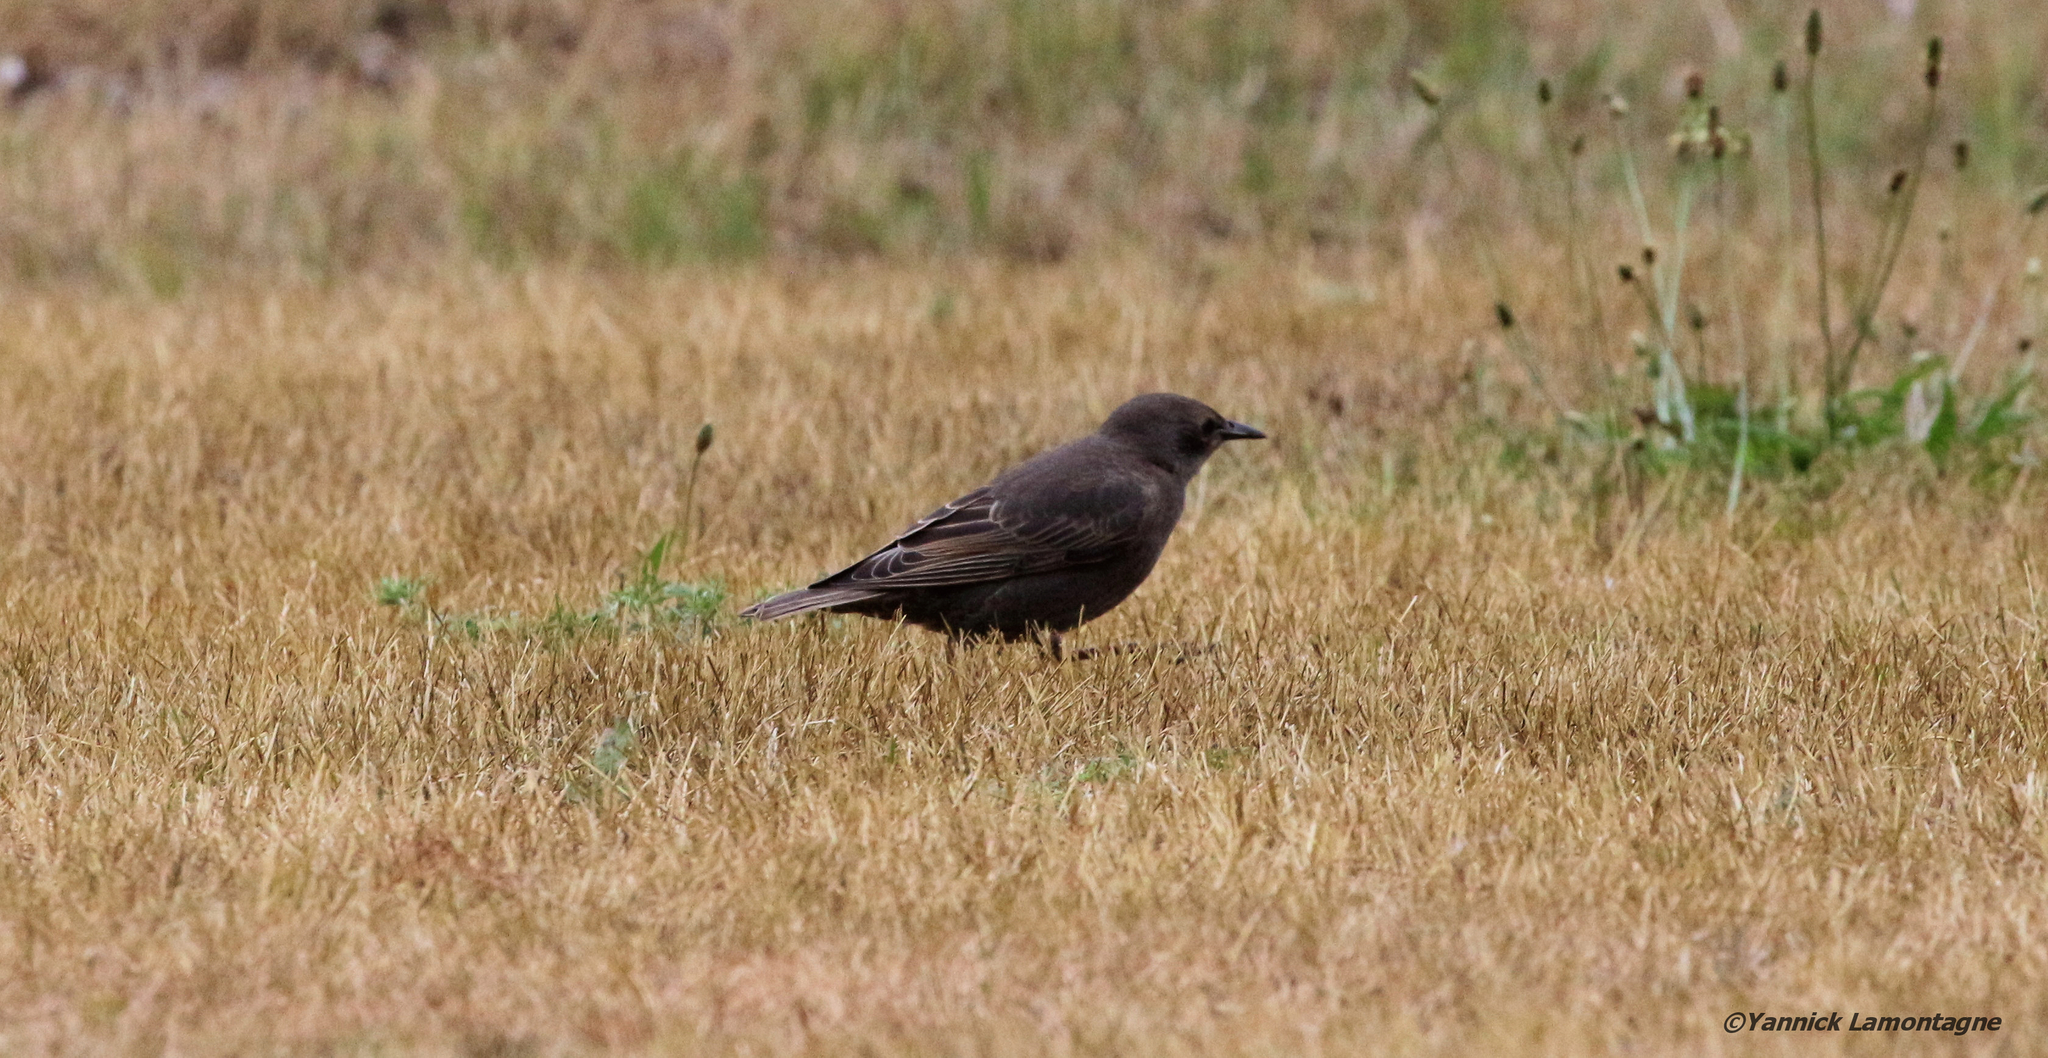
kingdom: Animalia
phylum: Chordata
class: Aves
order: Passeriformes
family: Sturnidae
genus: Sturnus
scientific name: Sturnus vulgaris
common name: Common starling
